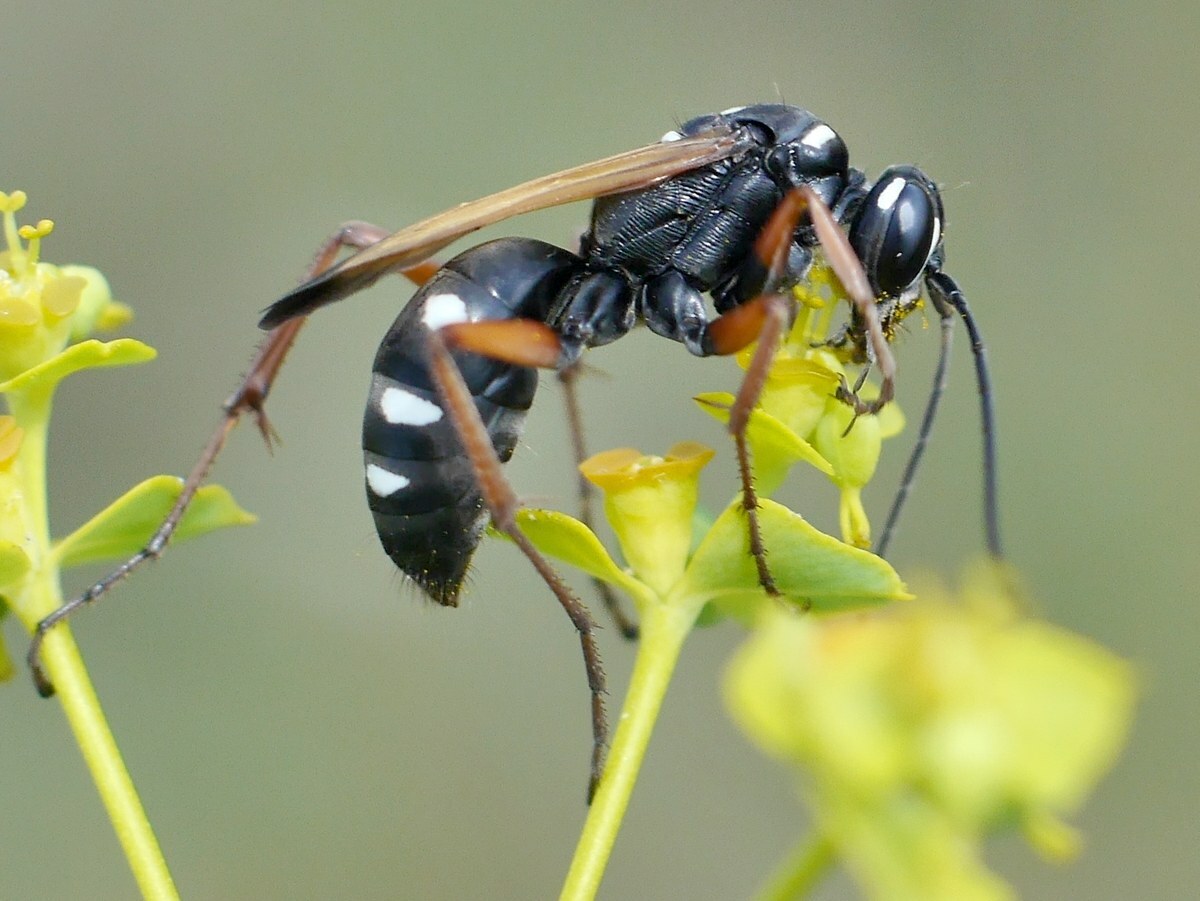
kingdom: Animalia
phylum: Arthropoda
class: Insecta
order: Hymenoptera
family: Pompilidae
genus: Cryptocheilus
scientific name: Cryptocheilus variabilis
